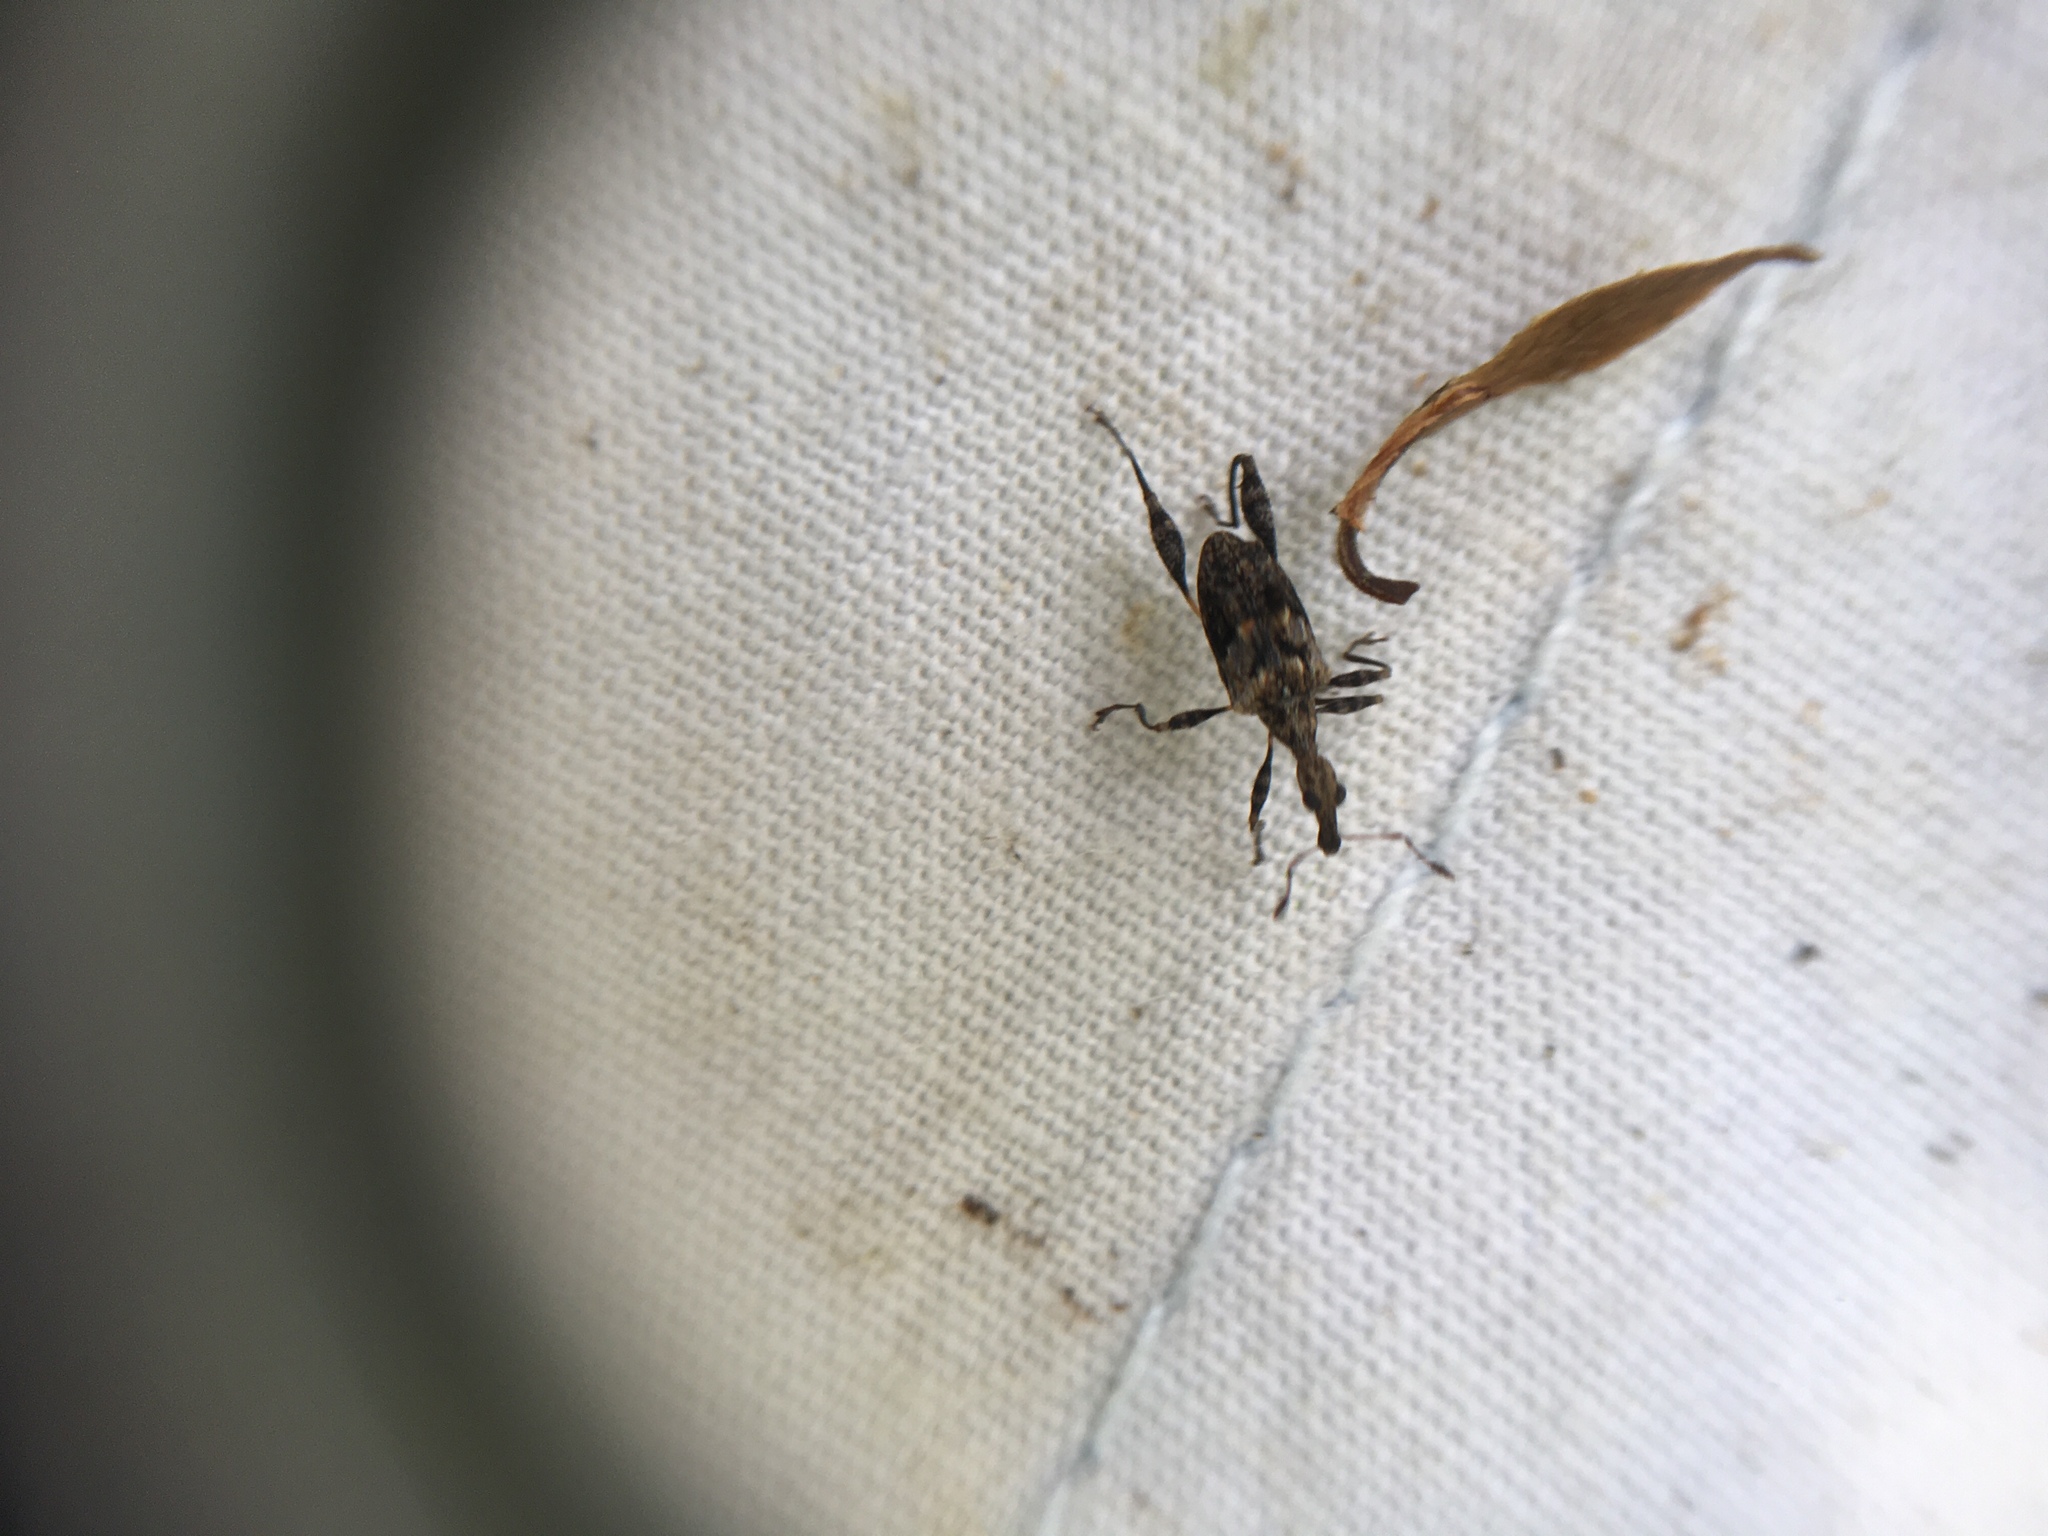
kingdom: Animalia
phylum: Arthropoda
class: Insecta
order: Coleoptera
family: Curculionidae
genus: Stephanorhynchus
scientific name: Stephanorhynchus lawsoni
